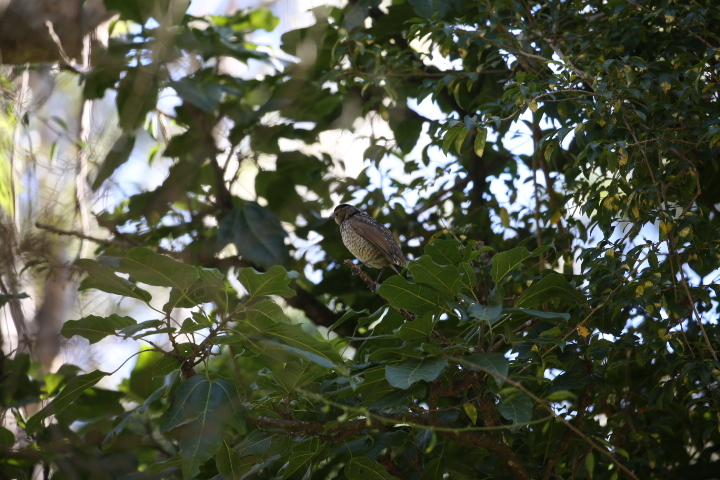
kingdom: Animalia
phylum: Chordata
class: Aves
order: Passeriformes
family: Ptilonorhynchidae
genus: Sericulus
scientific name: Sericulus chrysocephalus
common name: Regent bowerbird
